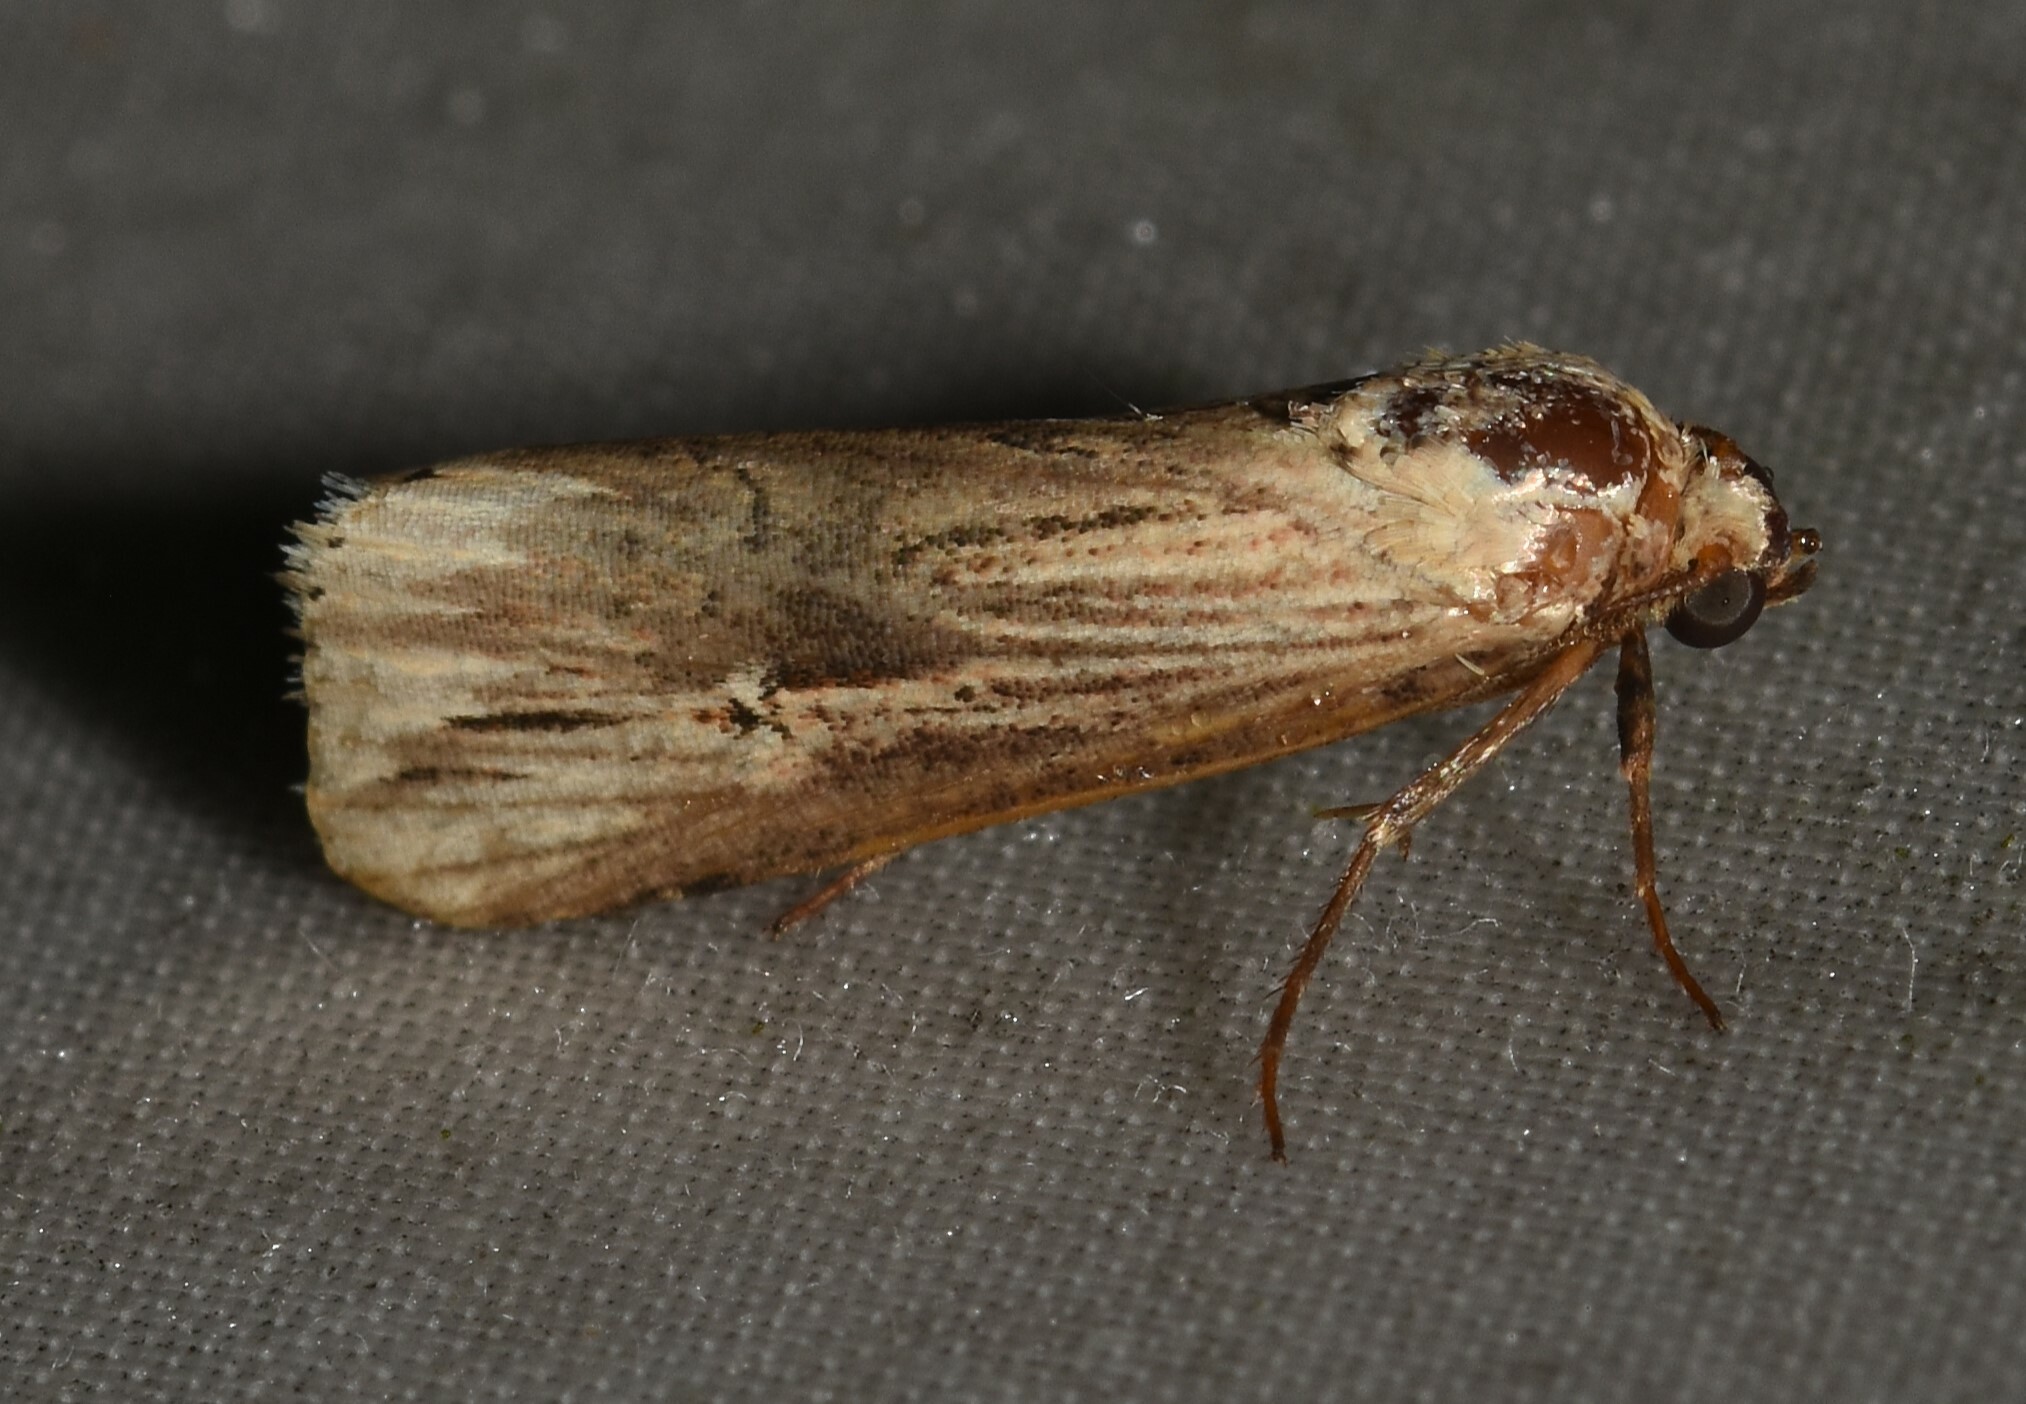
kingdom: Animalia
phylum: Arthropoda
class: Insecta
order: Lepidoptera
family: Noctuidae
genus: Crambodes
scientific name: Crambodes talidiformis
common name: Verbena moth
